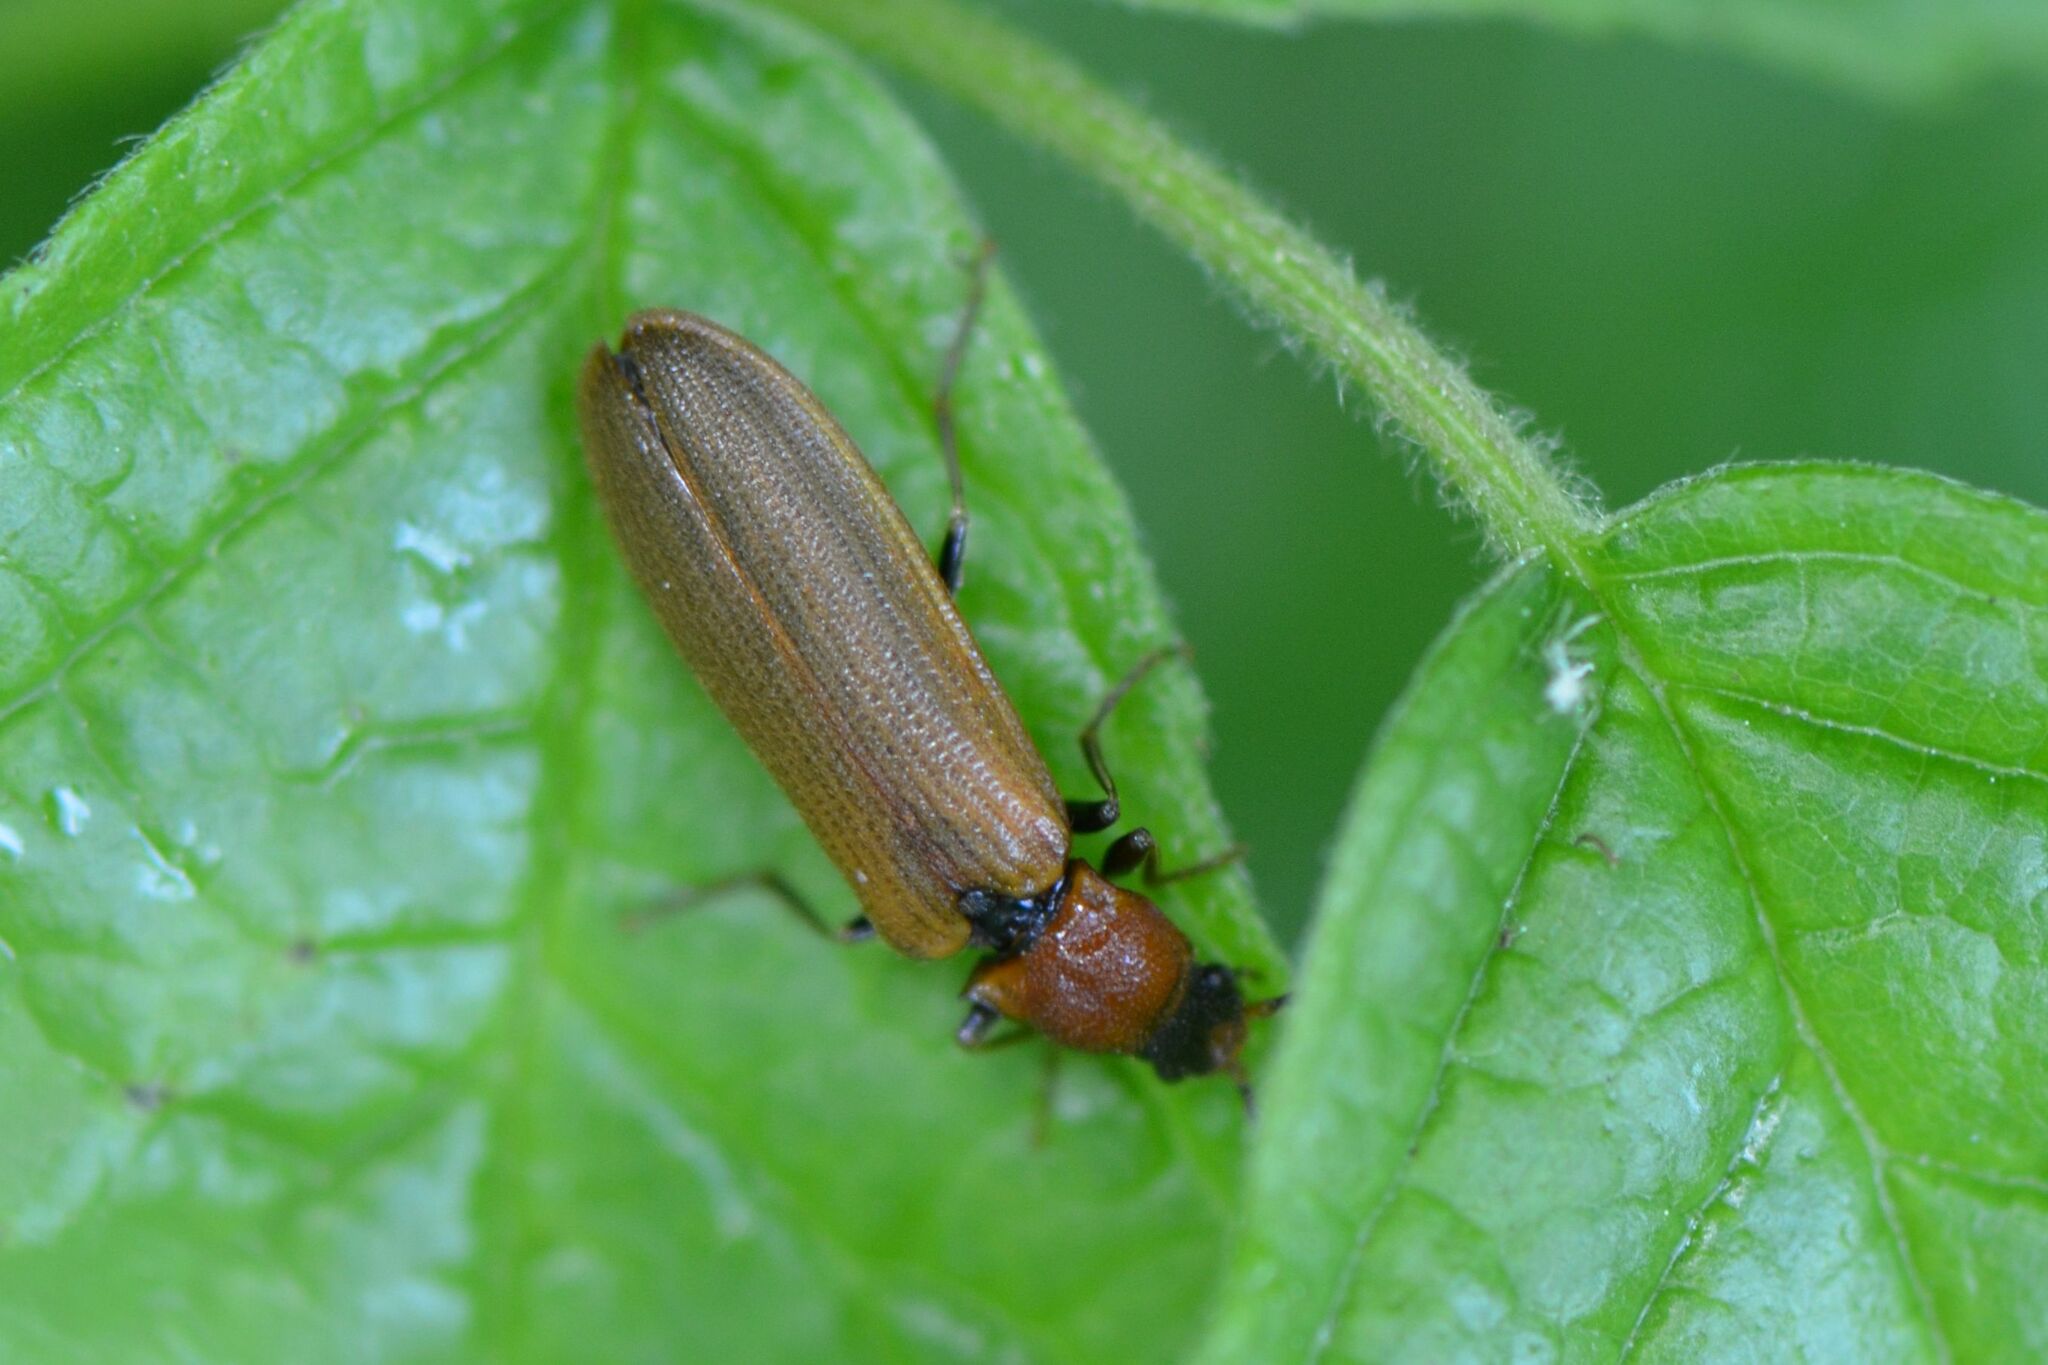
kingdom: Animalia
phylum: Arthropoda
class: Insecta
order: Coleoptera
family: Elateridae
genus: Denticollis
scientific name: Denticollis linearis
